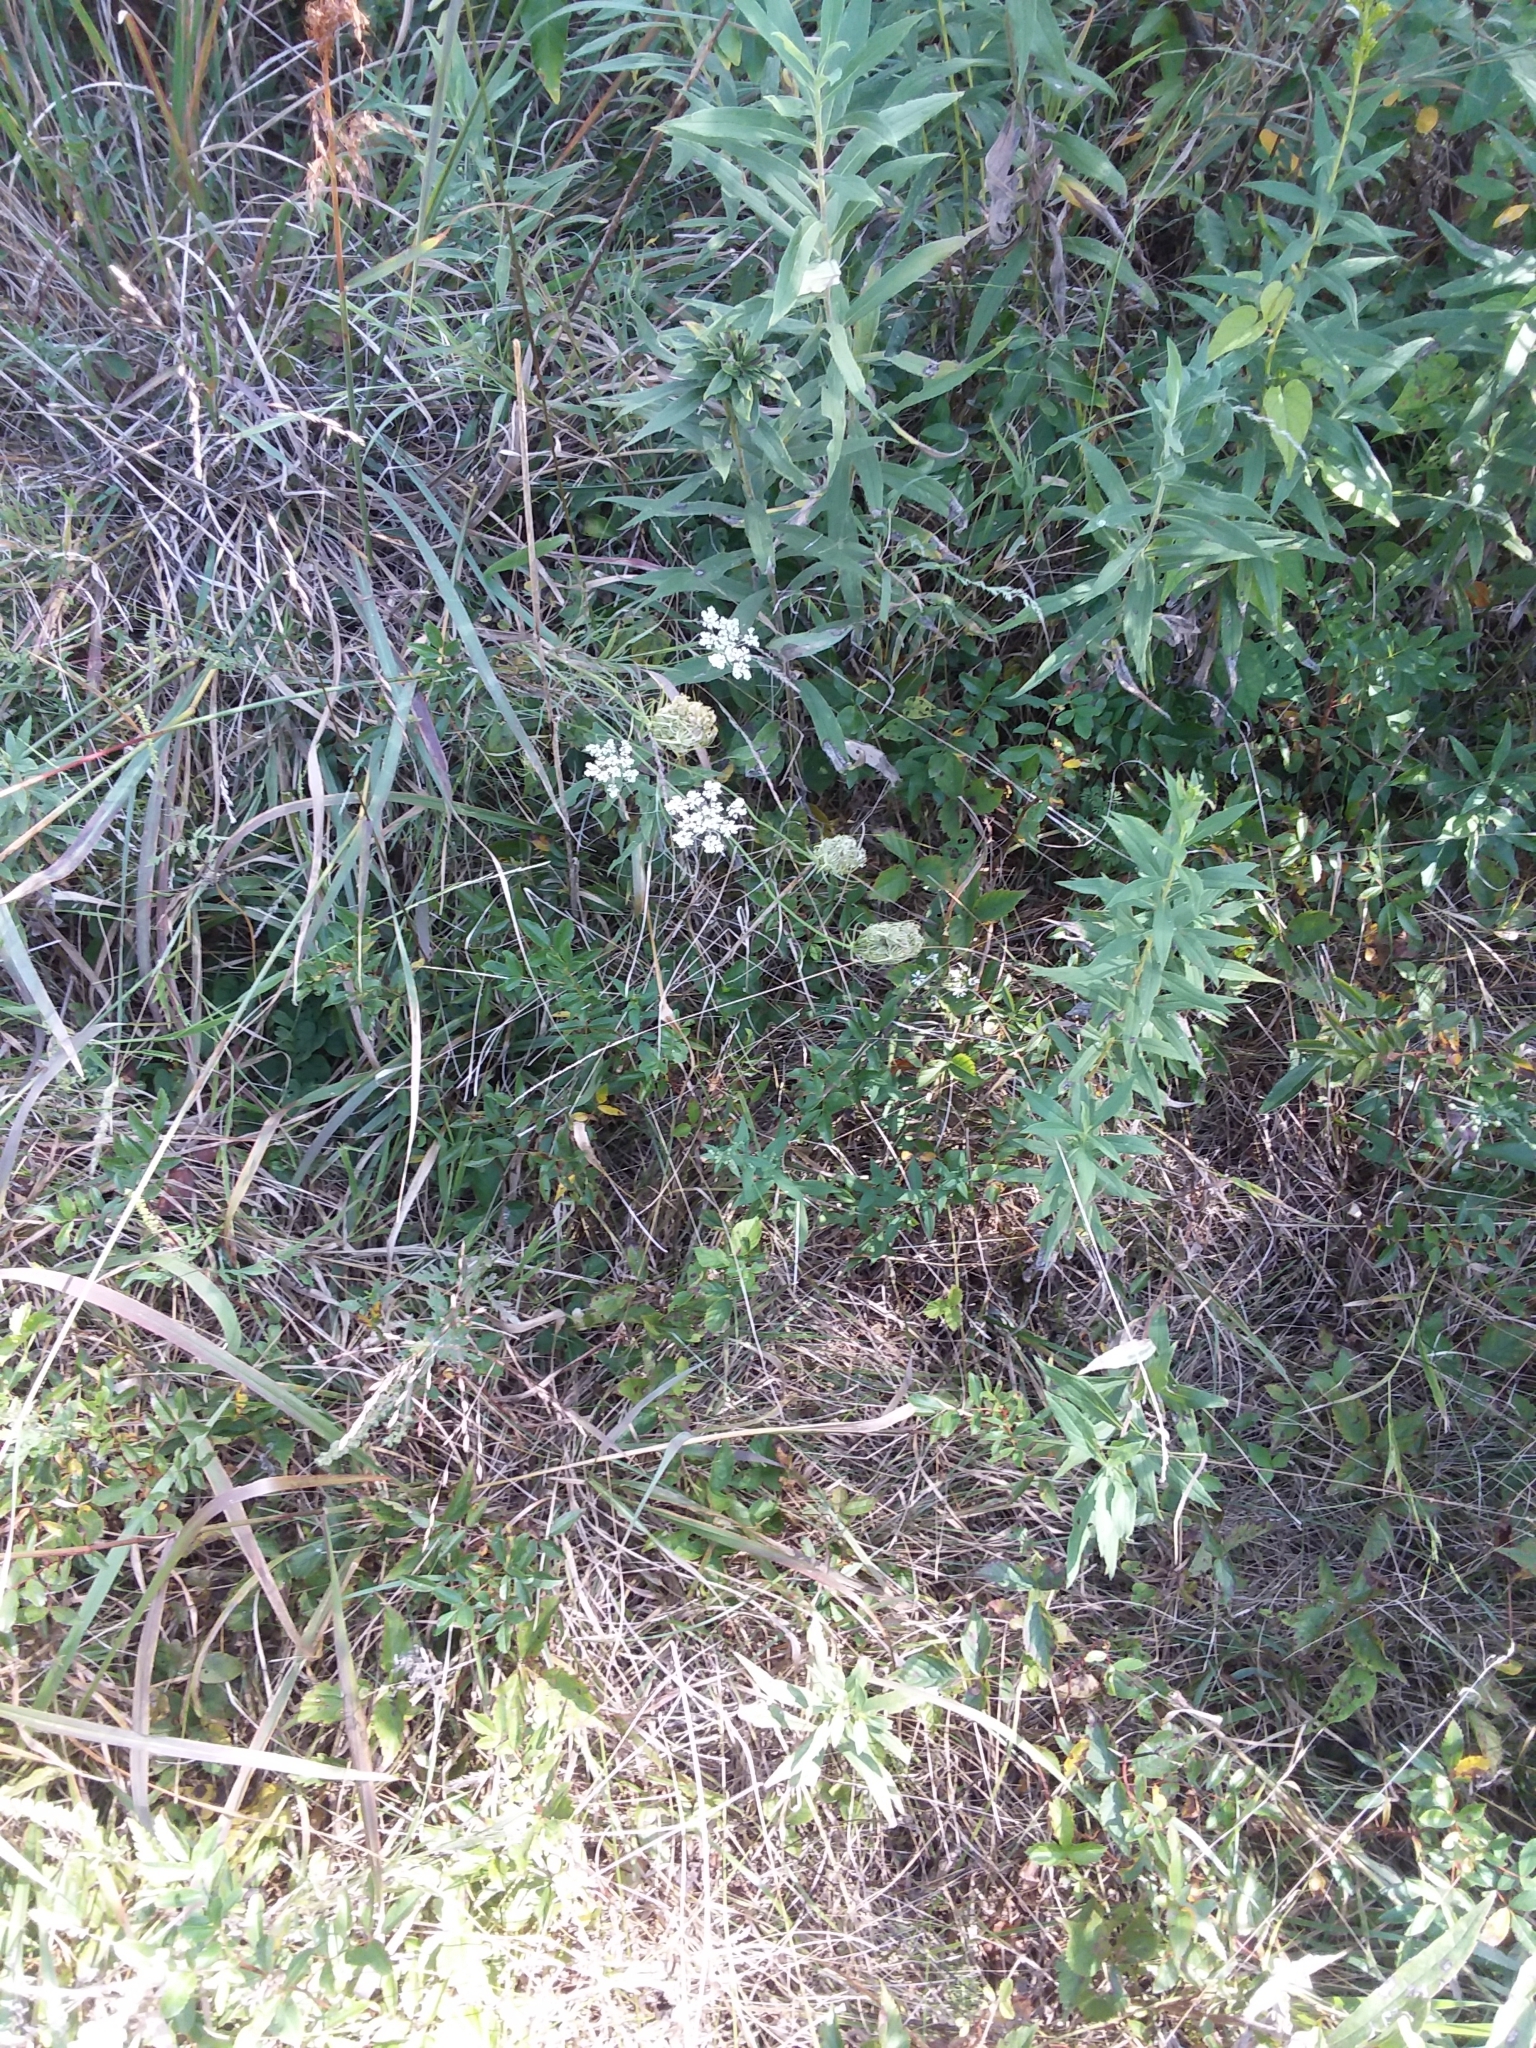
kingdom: Plantae
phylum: Tracheophyta
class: Magnoliopsida
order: Apiales
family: Apiaceae
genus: Daucus
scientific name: Daucus carota
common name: Wild carrot
